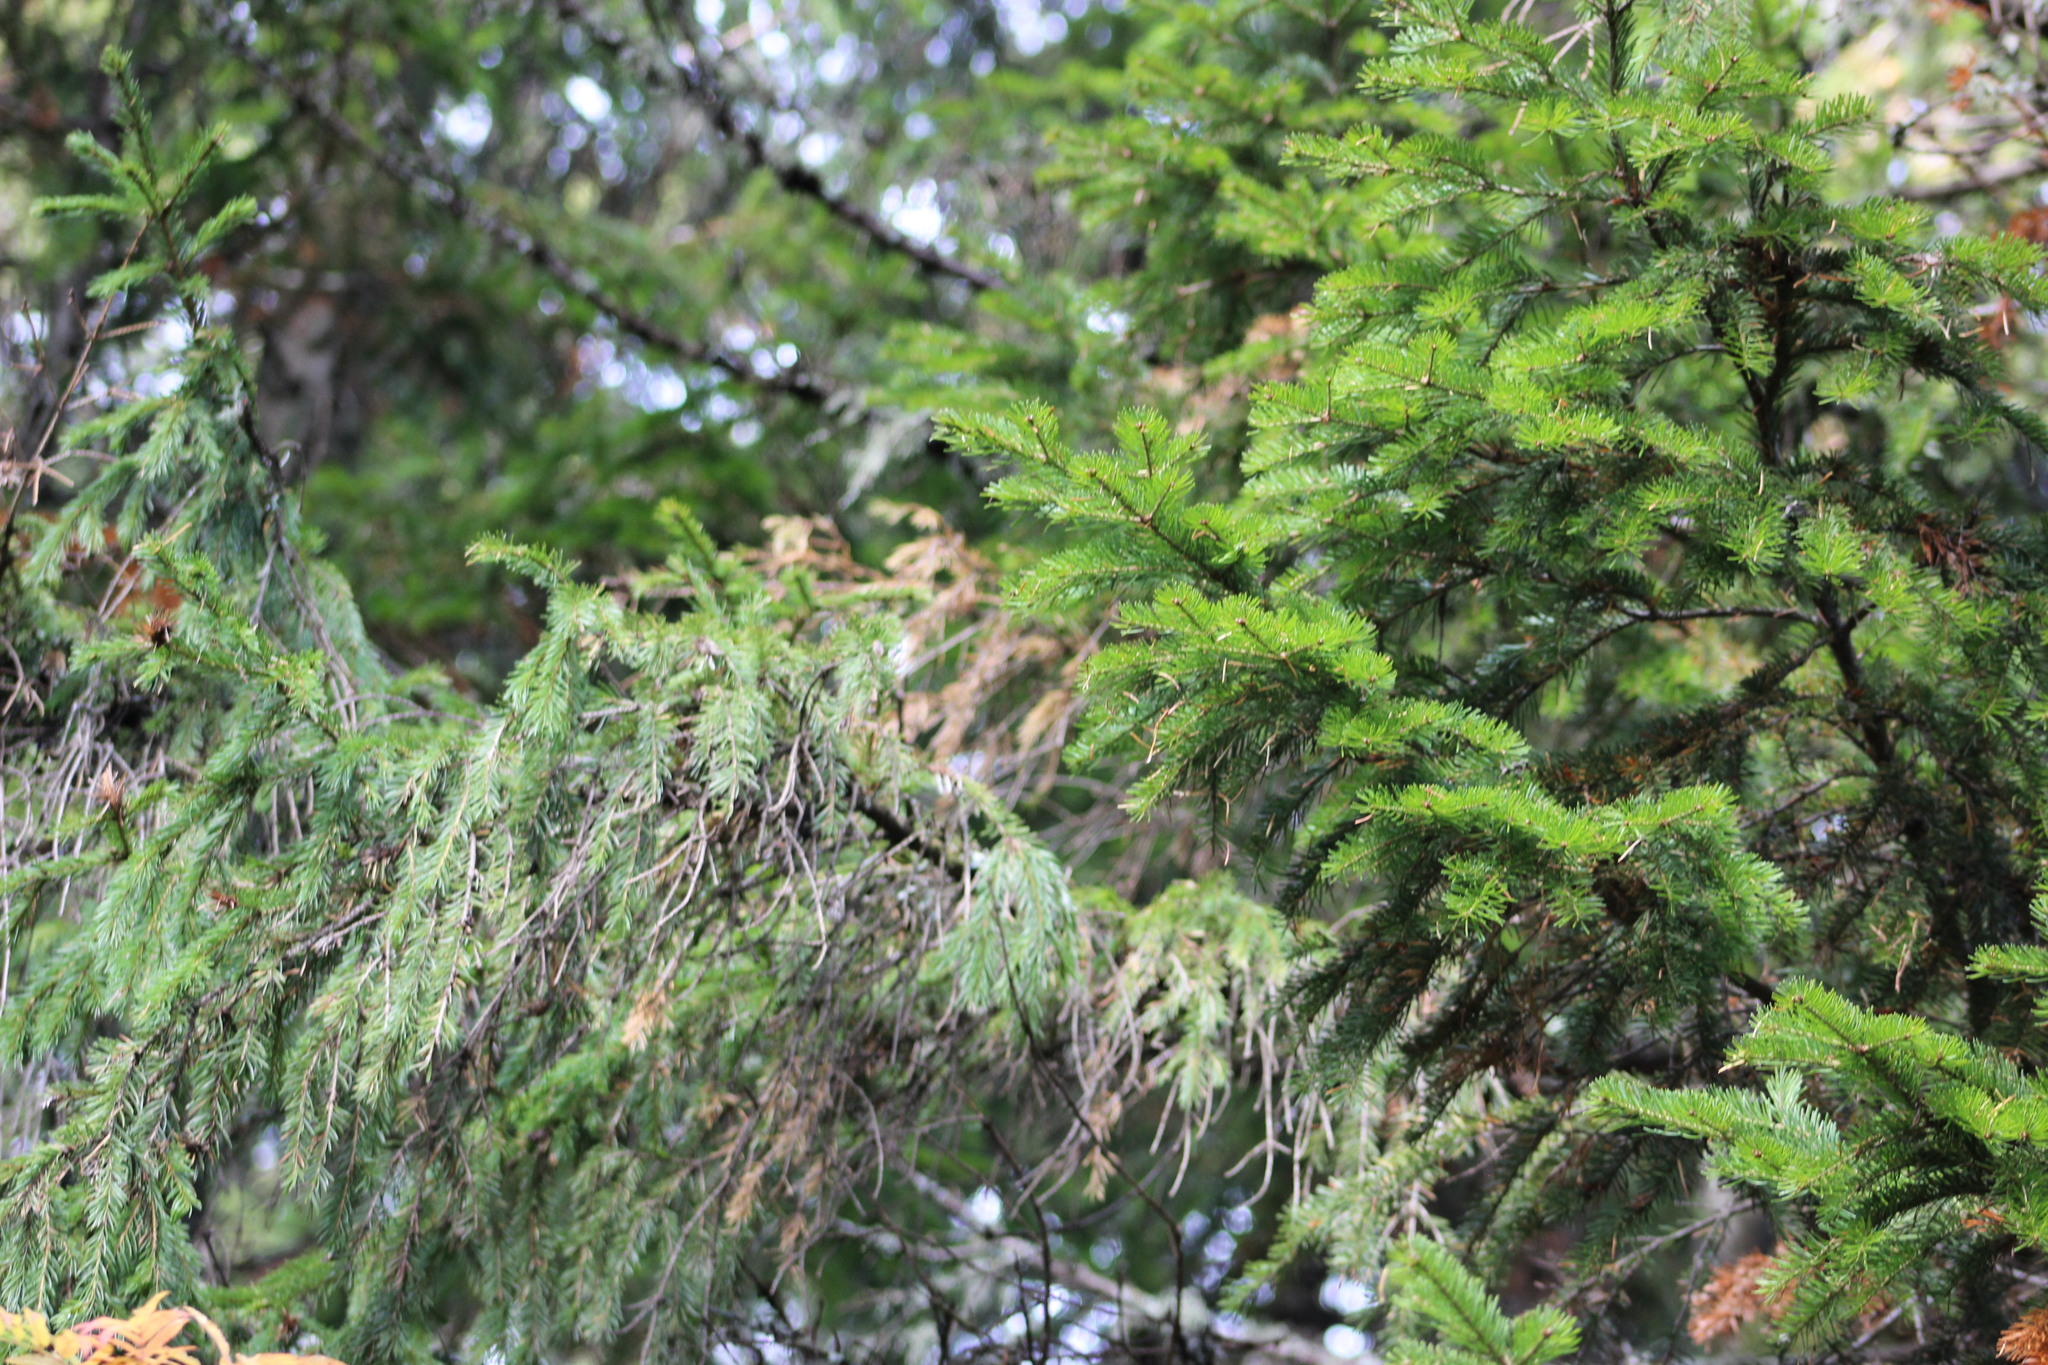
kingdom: Plantae
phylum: Tracheophyta
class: Pinopsida
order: Pinales
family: Pinaceae
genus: Abies
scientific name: Abies sibirica
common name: Siberian fir
